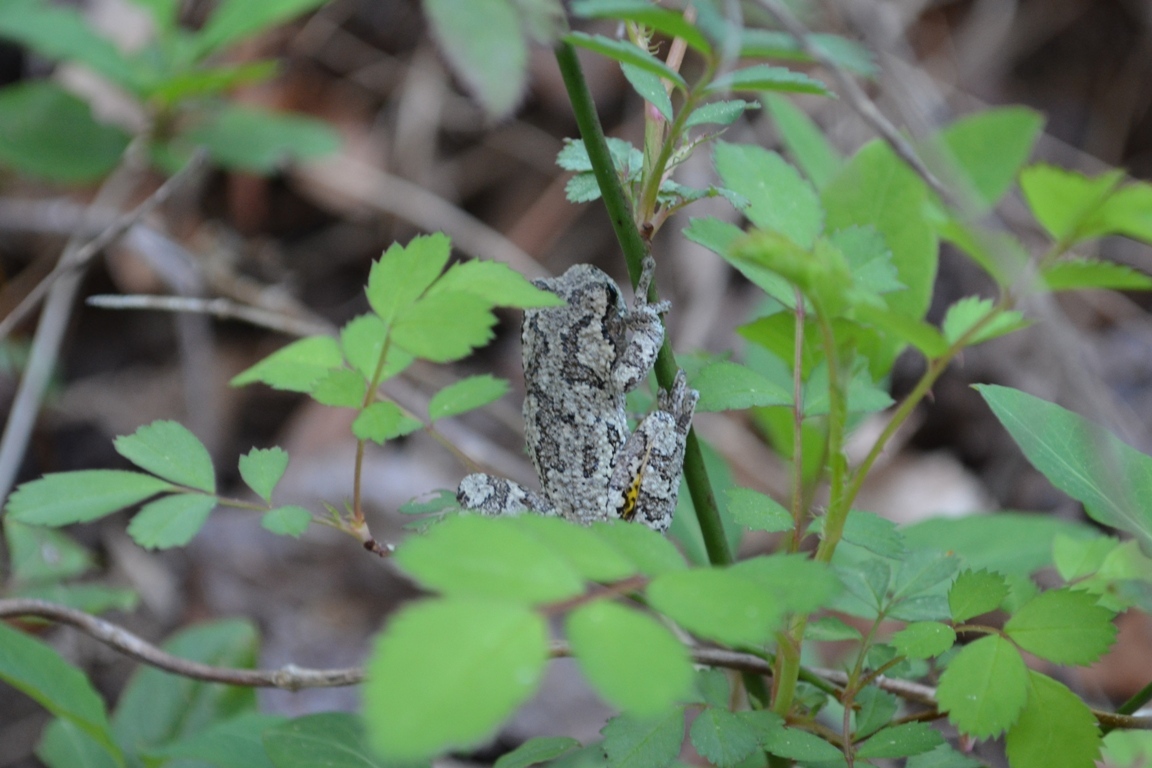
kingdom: Animalia
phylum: Chordata
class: Amphibia
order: Anura
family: Hylidae
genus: Dryophytes
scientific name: Dryophytes chrysoscelis
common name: Cope's gray treefrog
